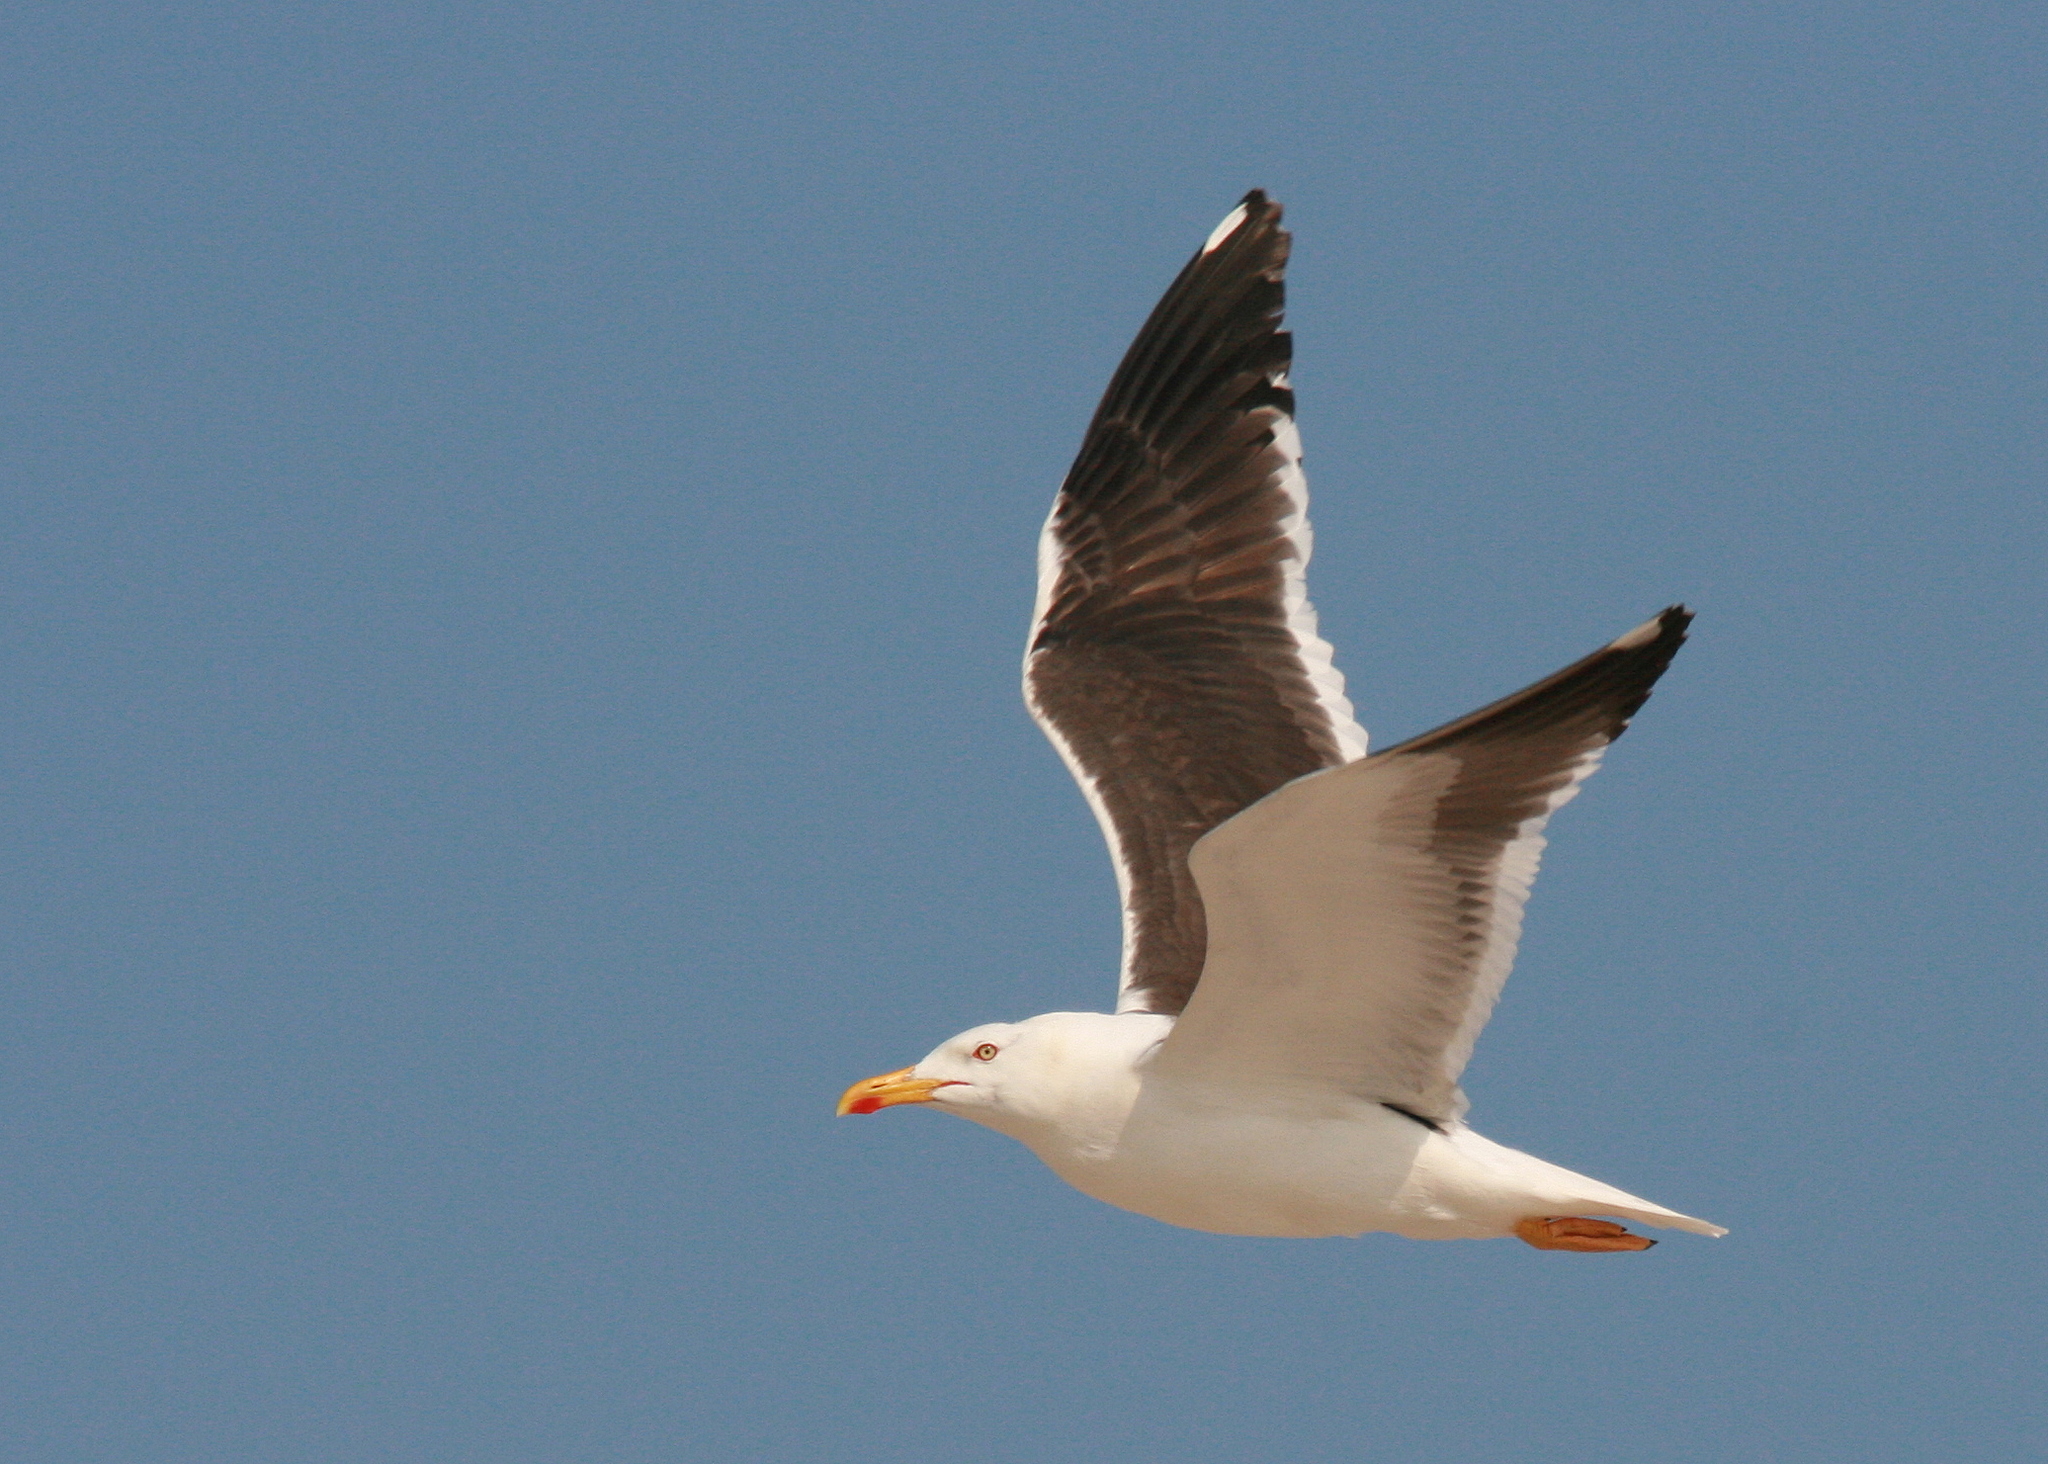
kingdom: Animalia
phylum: Chordata
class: Aves
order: Charadriiformes
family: Laridae
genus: Larus
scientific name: Larus fuscus
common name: Lesser black-backed gull
